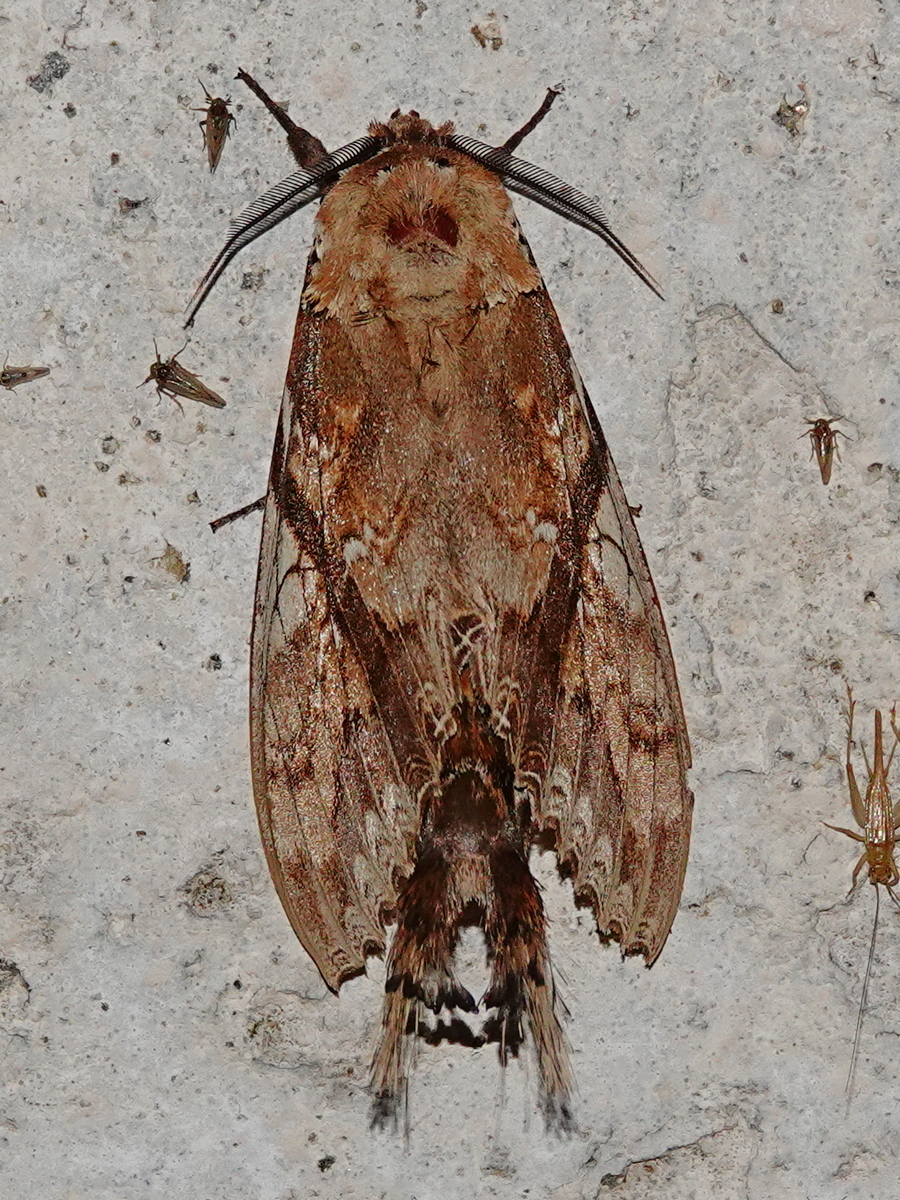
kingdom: Animalia
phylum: Arthropoda
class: Insecta
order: Lepidoptera
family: Notodontidae
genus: Dudusa
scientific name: Dudusa synopla
